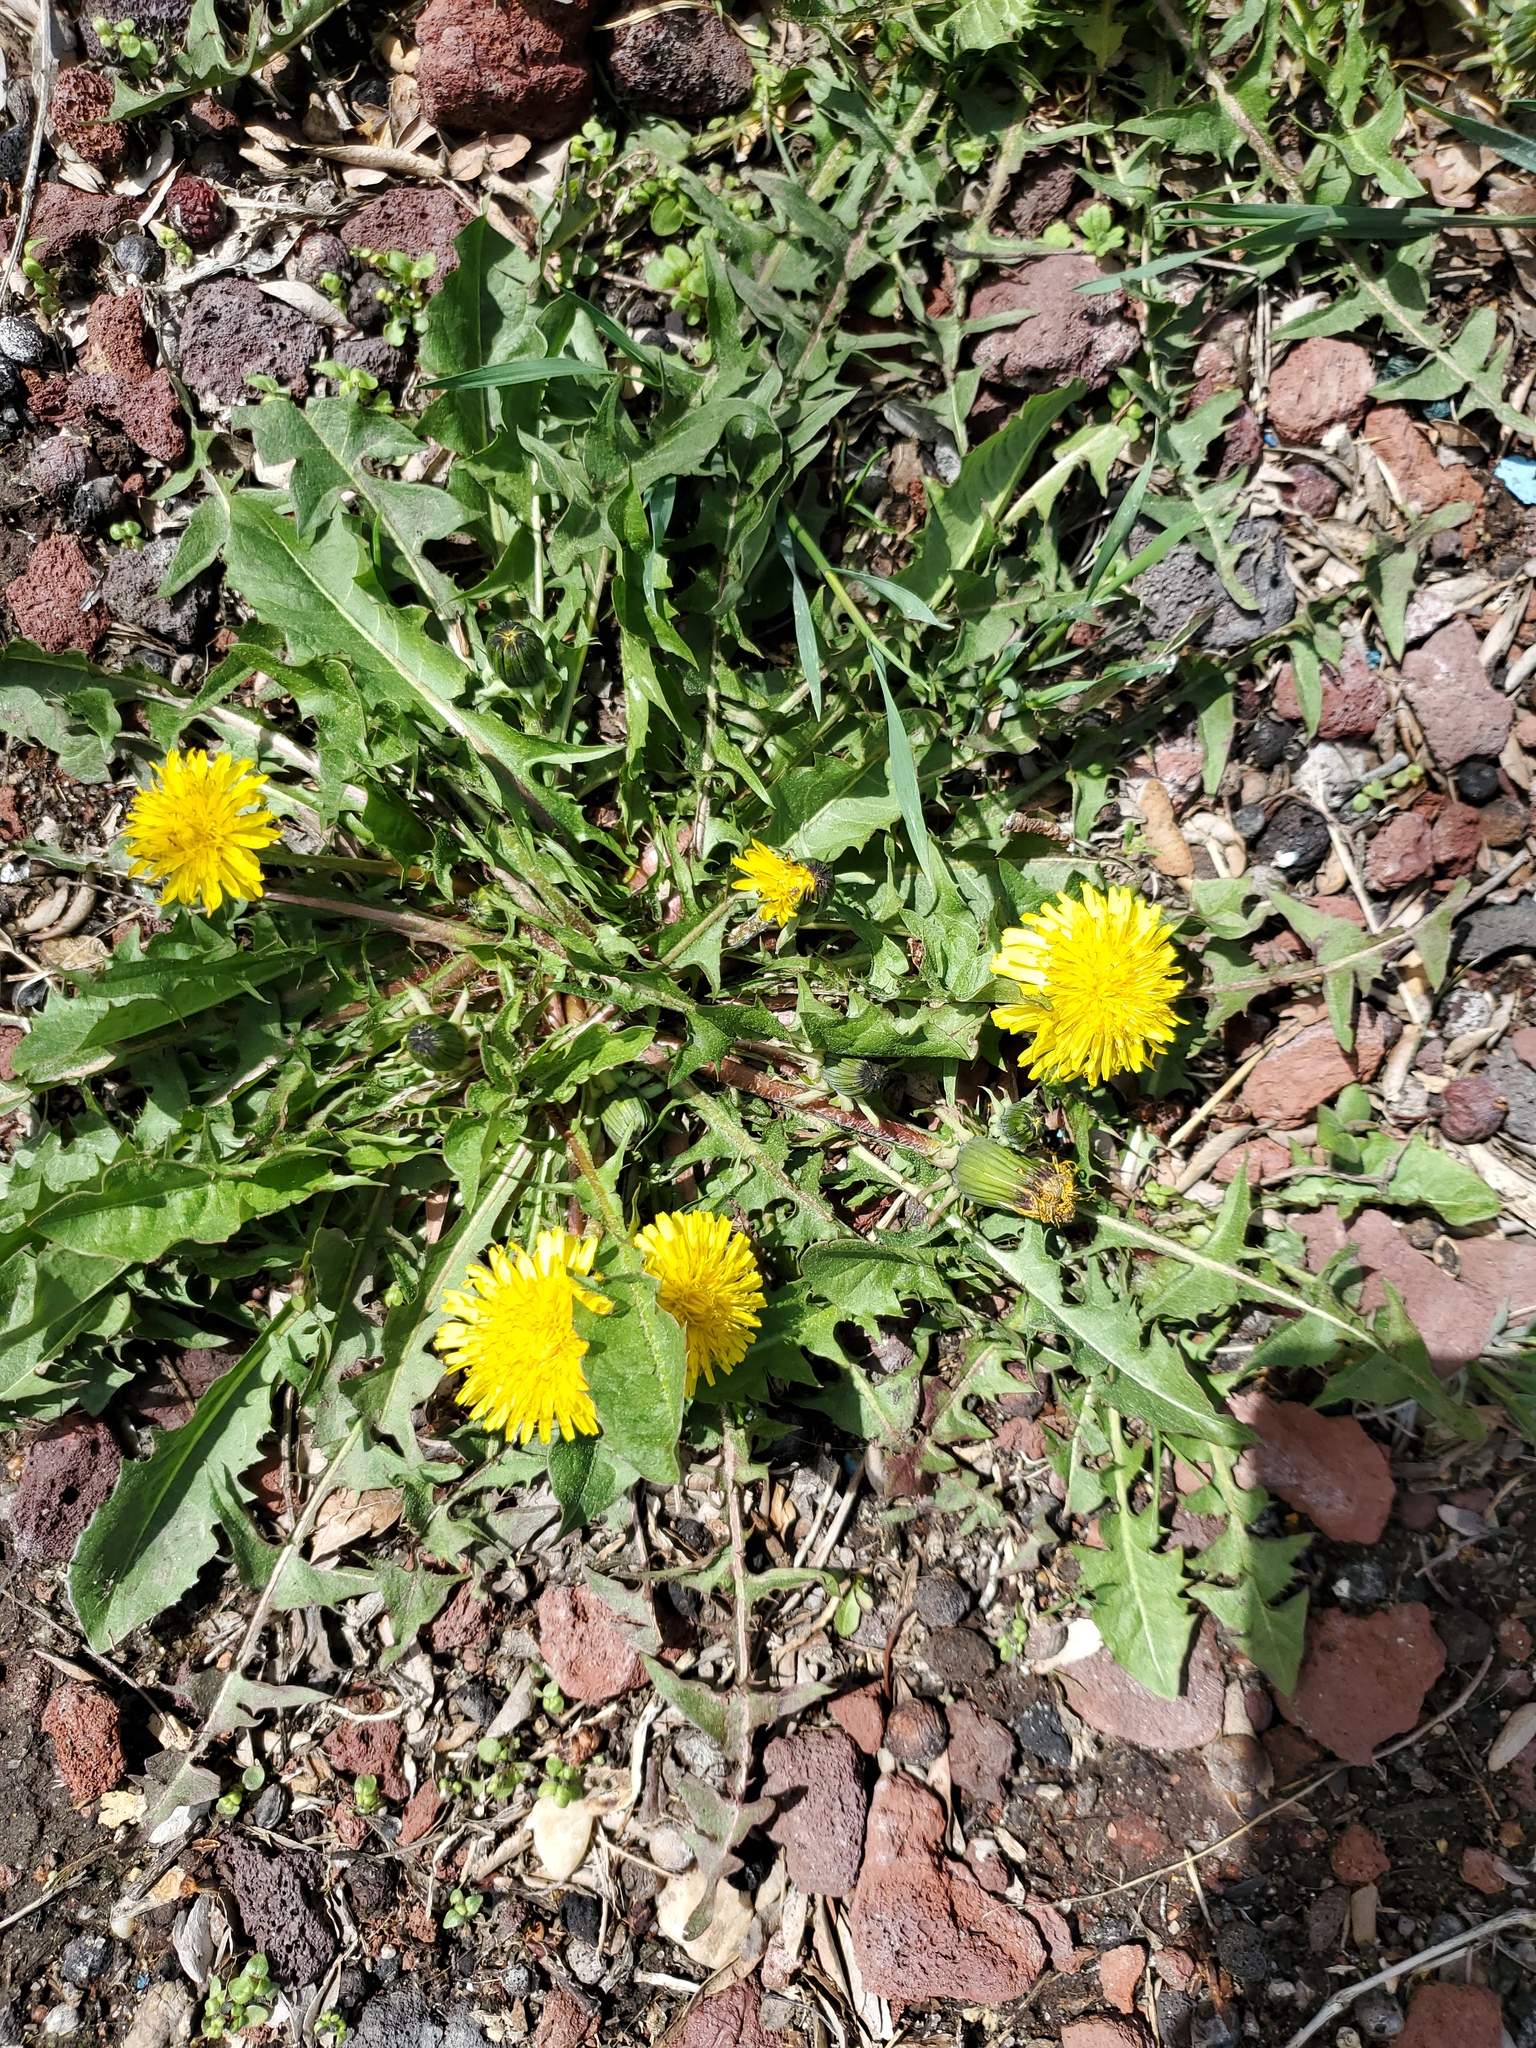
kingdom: Plantae
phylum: Tracheophyta
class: Magnoliopsida
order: Asterales
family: Asteraceae
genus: Taraxacum
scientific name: Taraxacum
